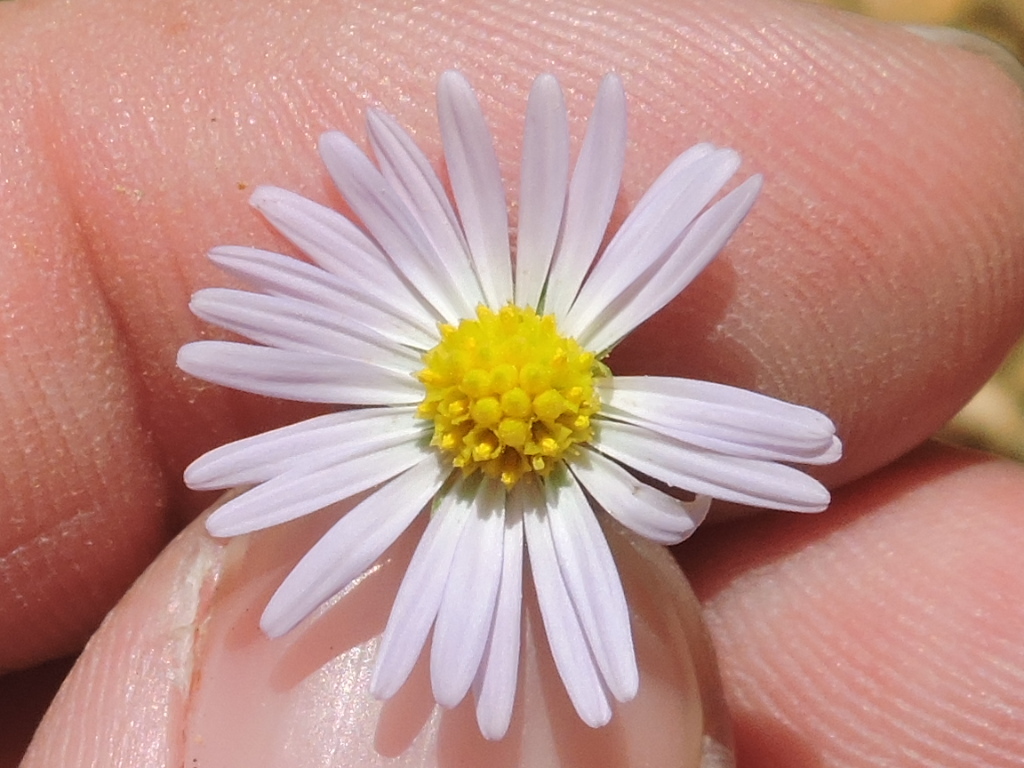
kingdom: Plantae
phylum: Tracheophyta
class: Magnoliopsida
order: Asterales
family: Asteraceae
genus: Symphyotrichum
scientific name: Symphyotrichum divaricatum
